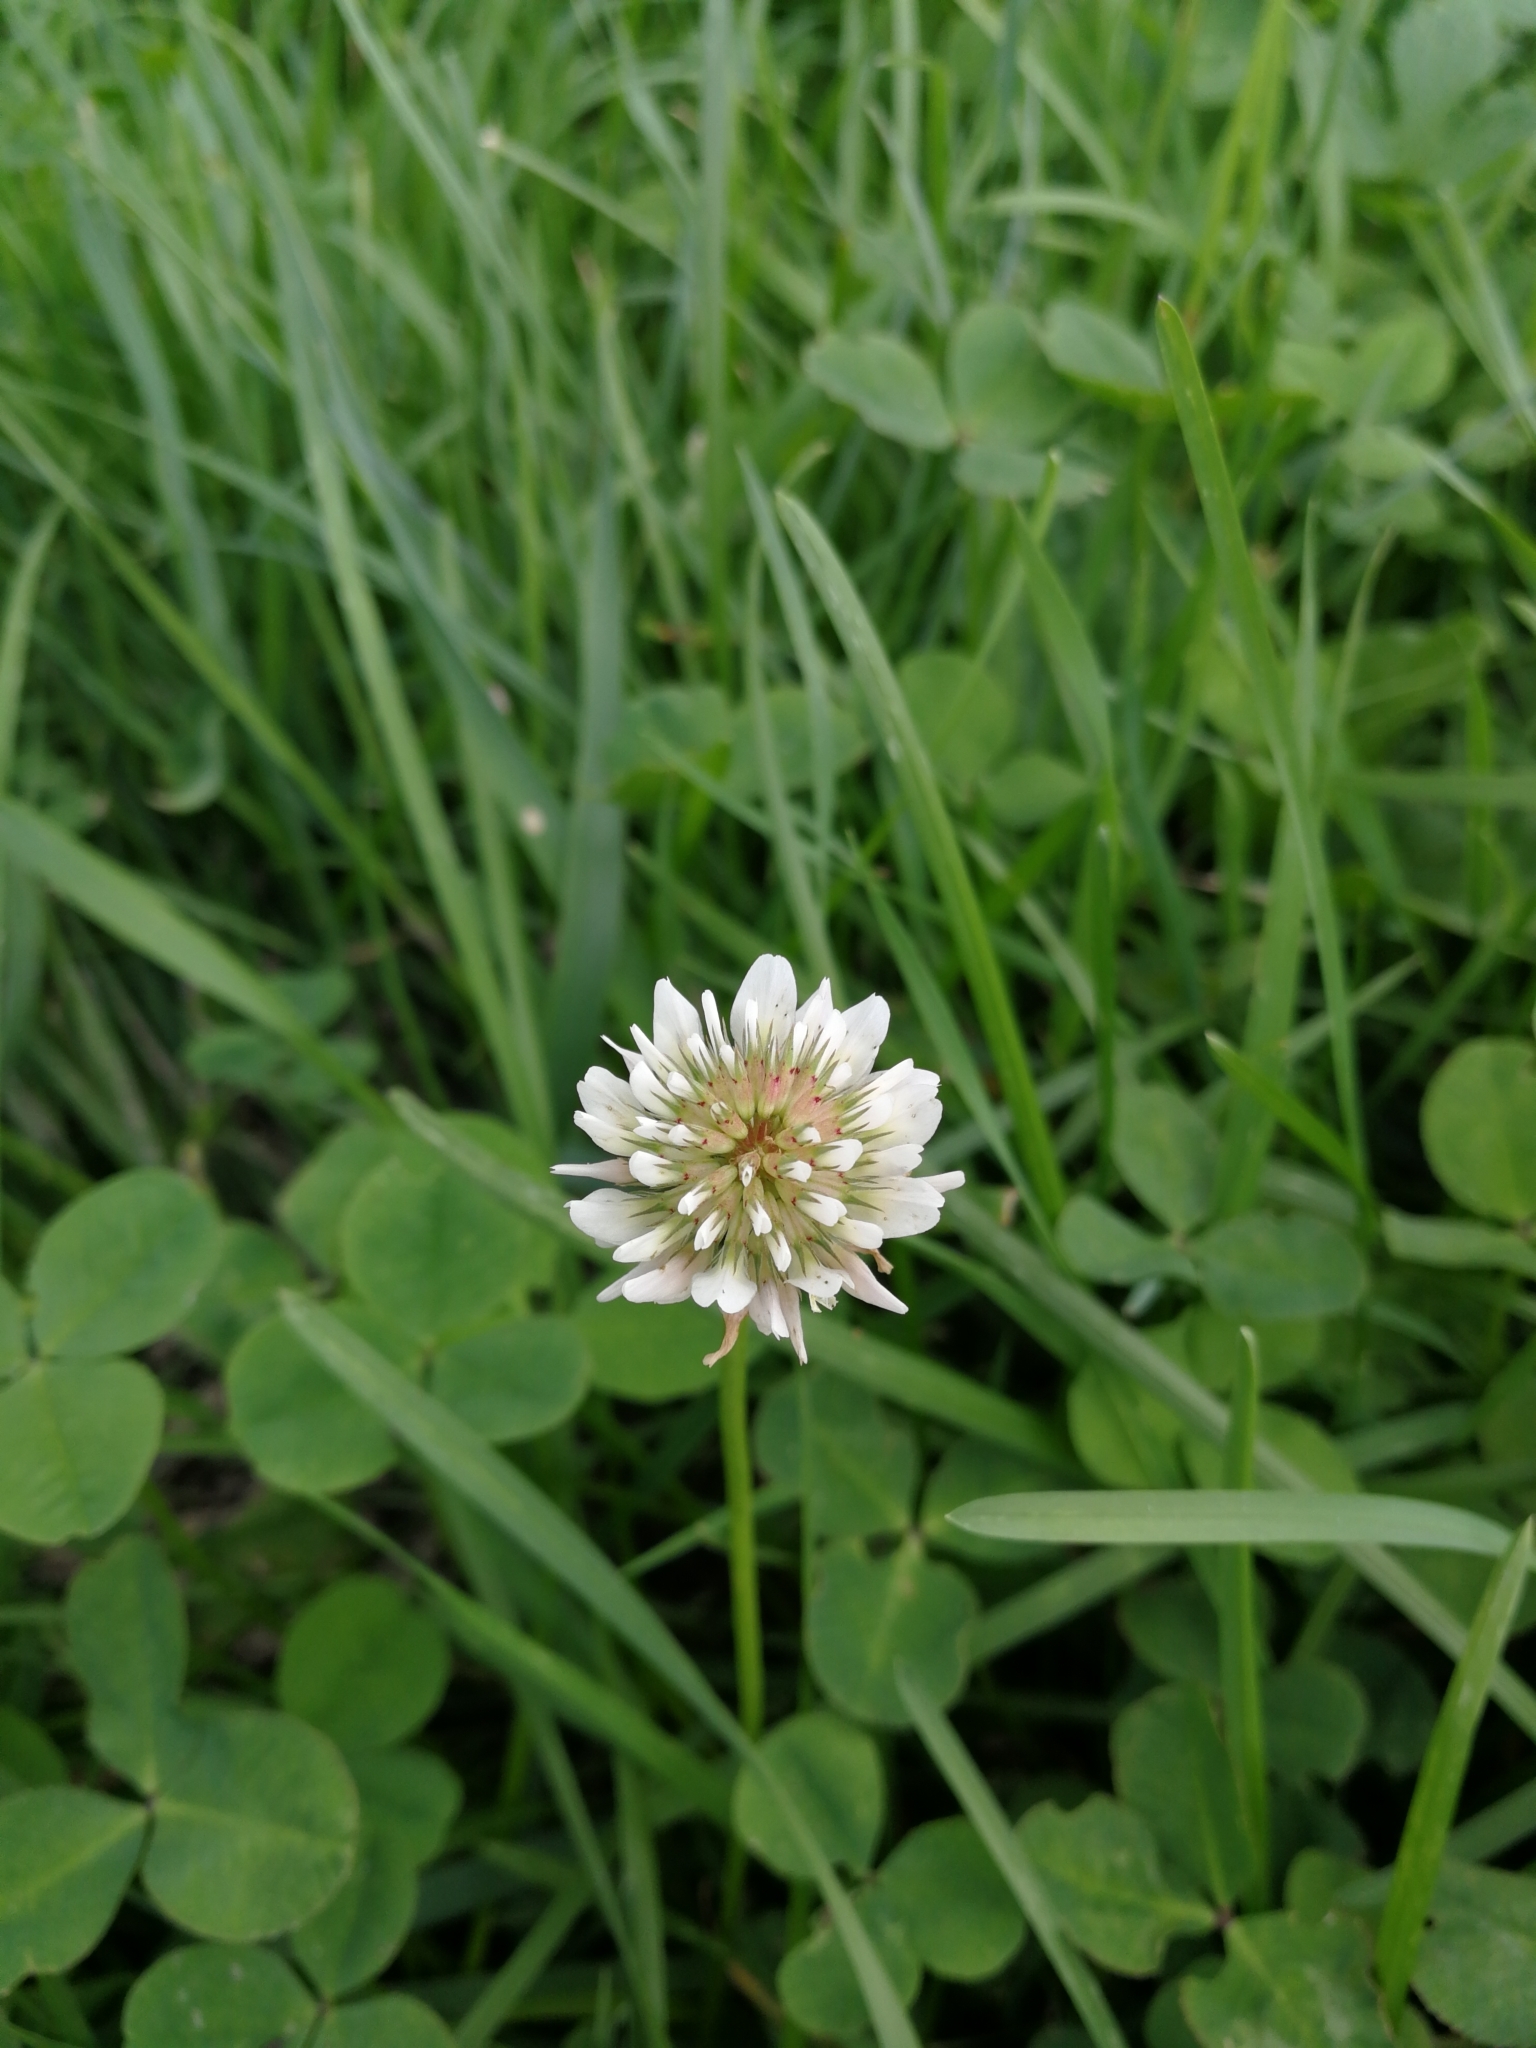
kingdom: Plantae
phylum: Tracheophyta
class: Magnoliopsida
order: Fabales
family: Fabaceae
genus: Trifolium
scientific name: Trifolium repens
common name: White clover
